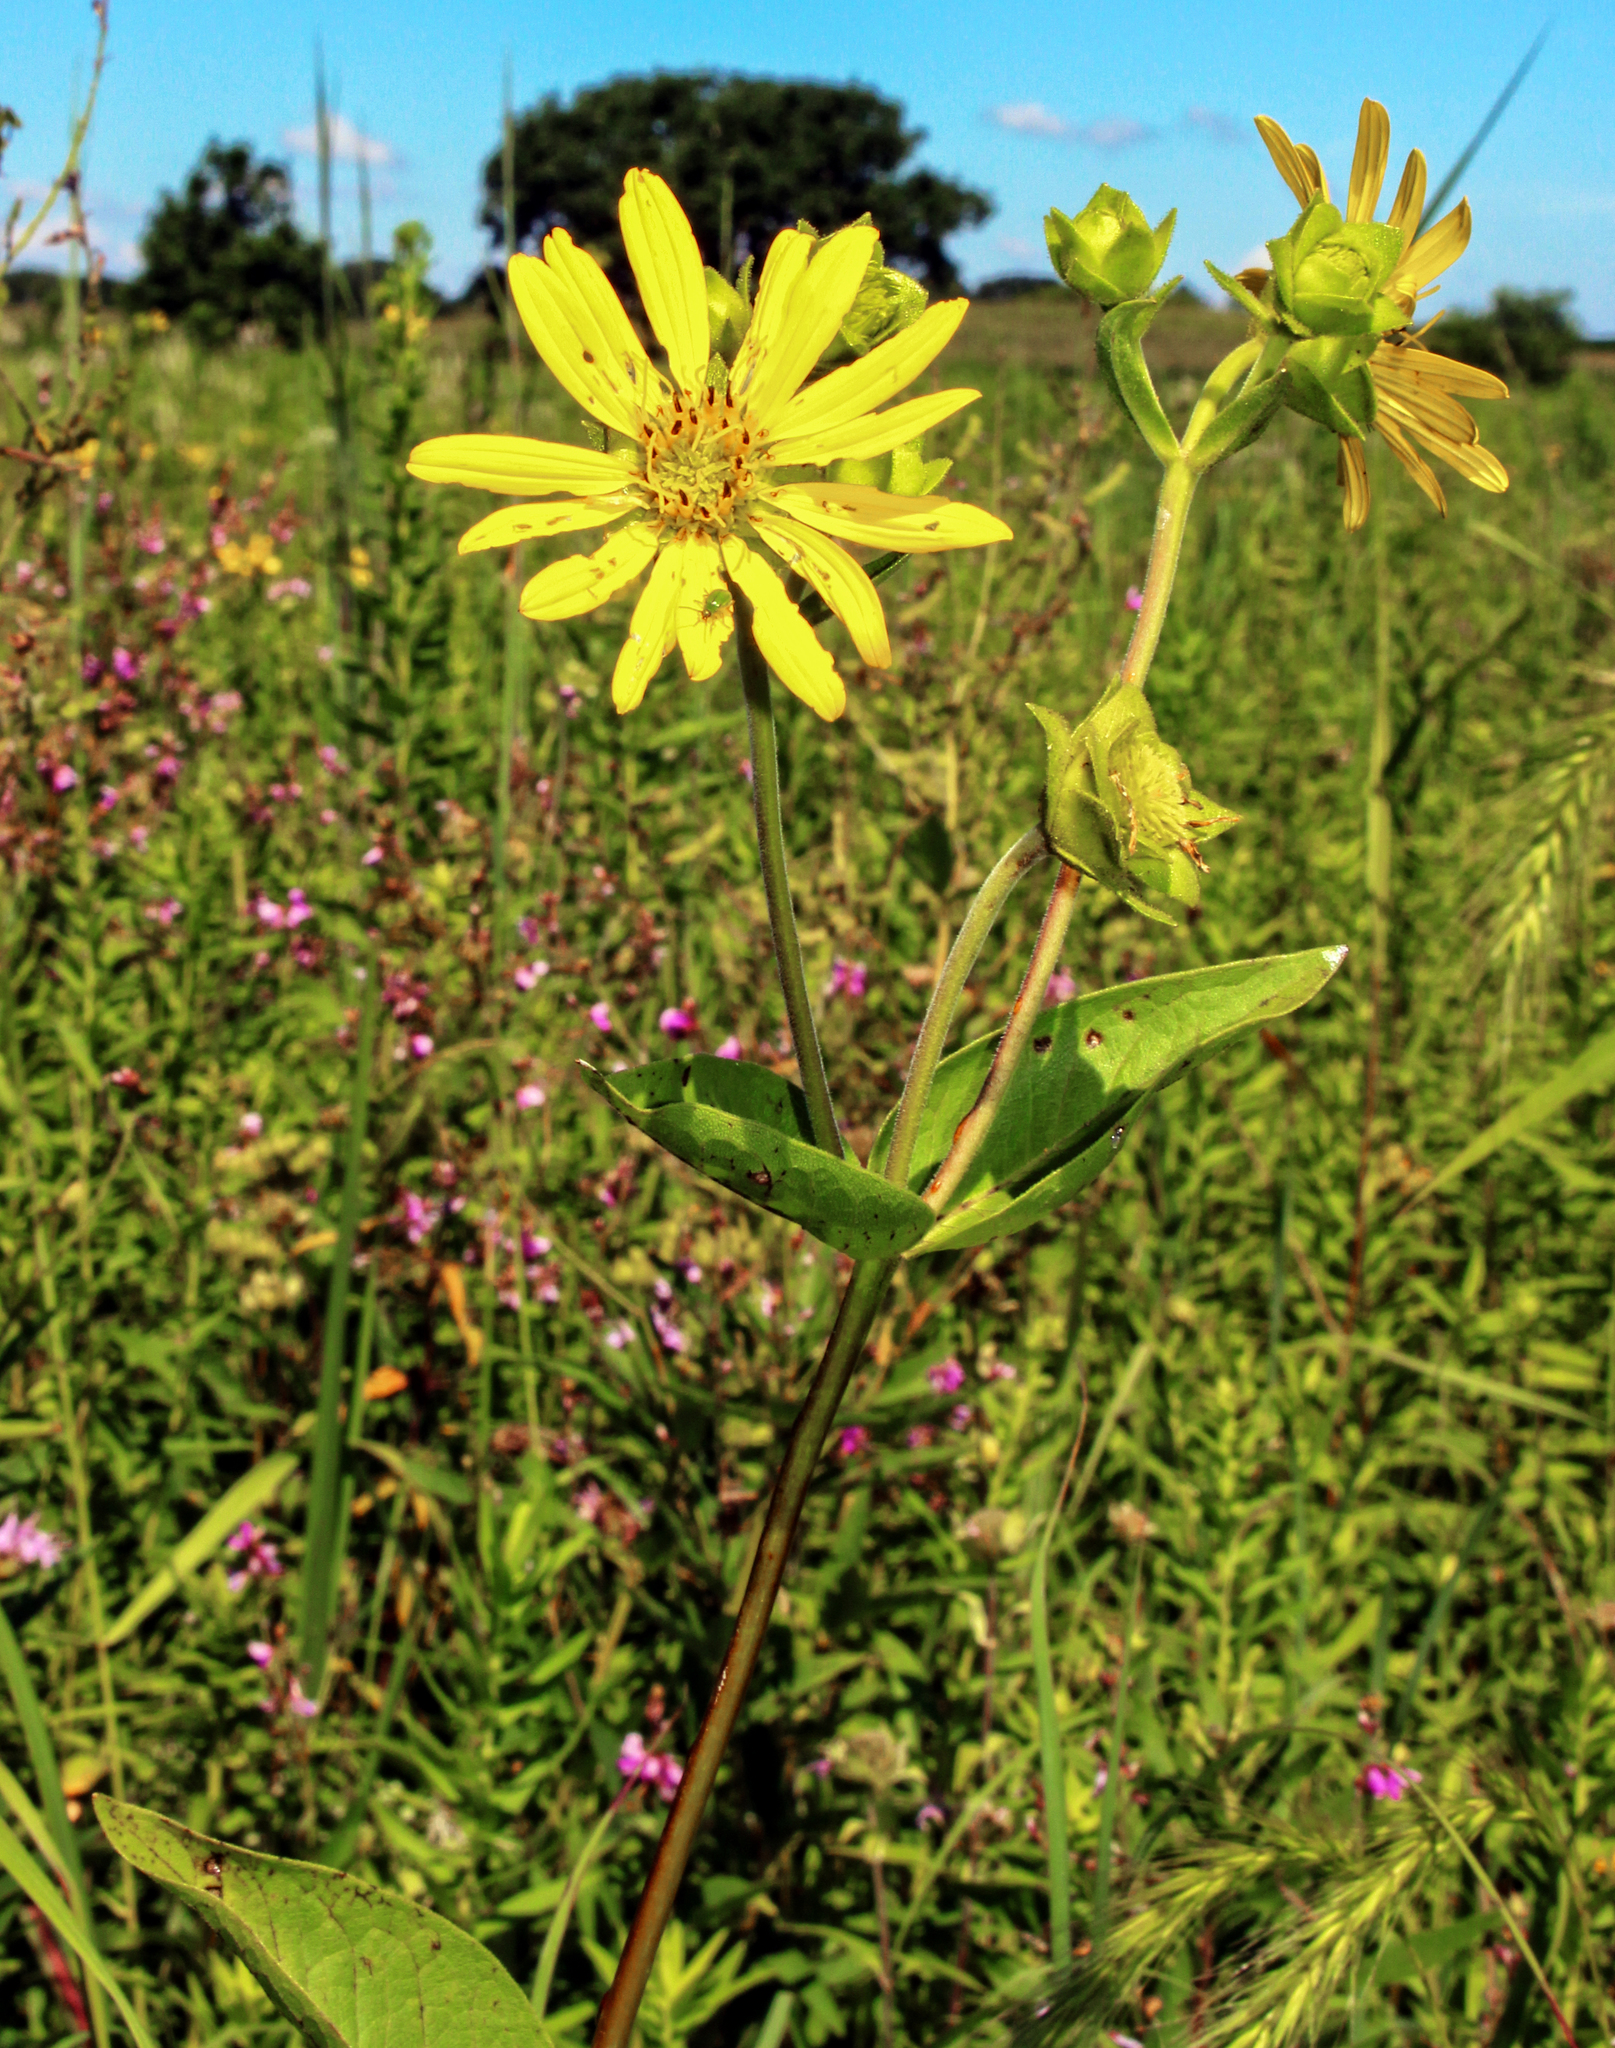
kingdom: Plantae
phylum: Tracheophyta
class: Magnoliopsida
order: Asterales
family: Asteraceae
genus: Silphium
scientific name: Silphium integrifolium
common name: Whole-leaf rosinweed
